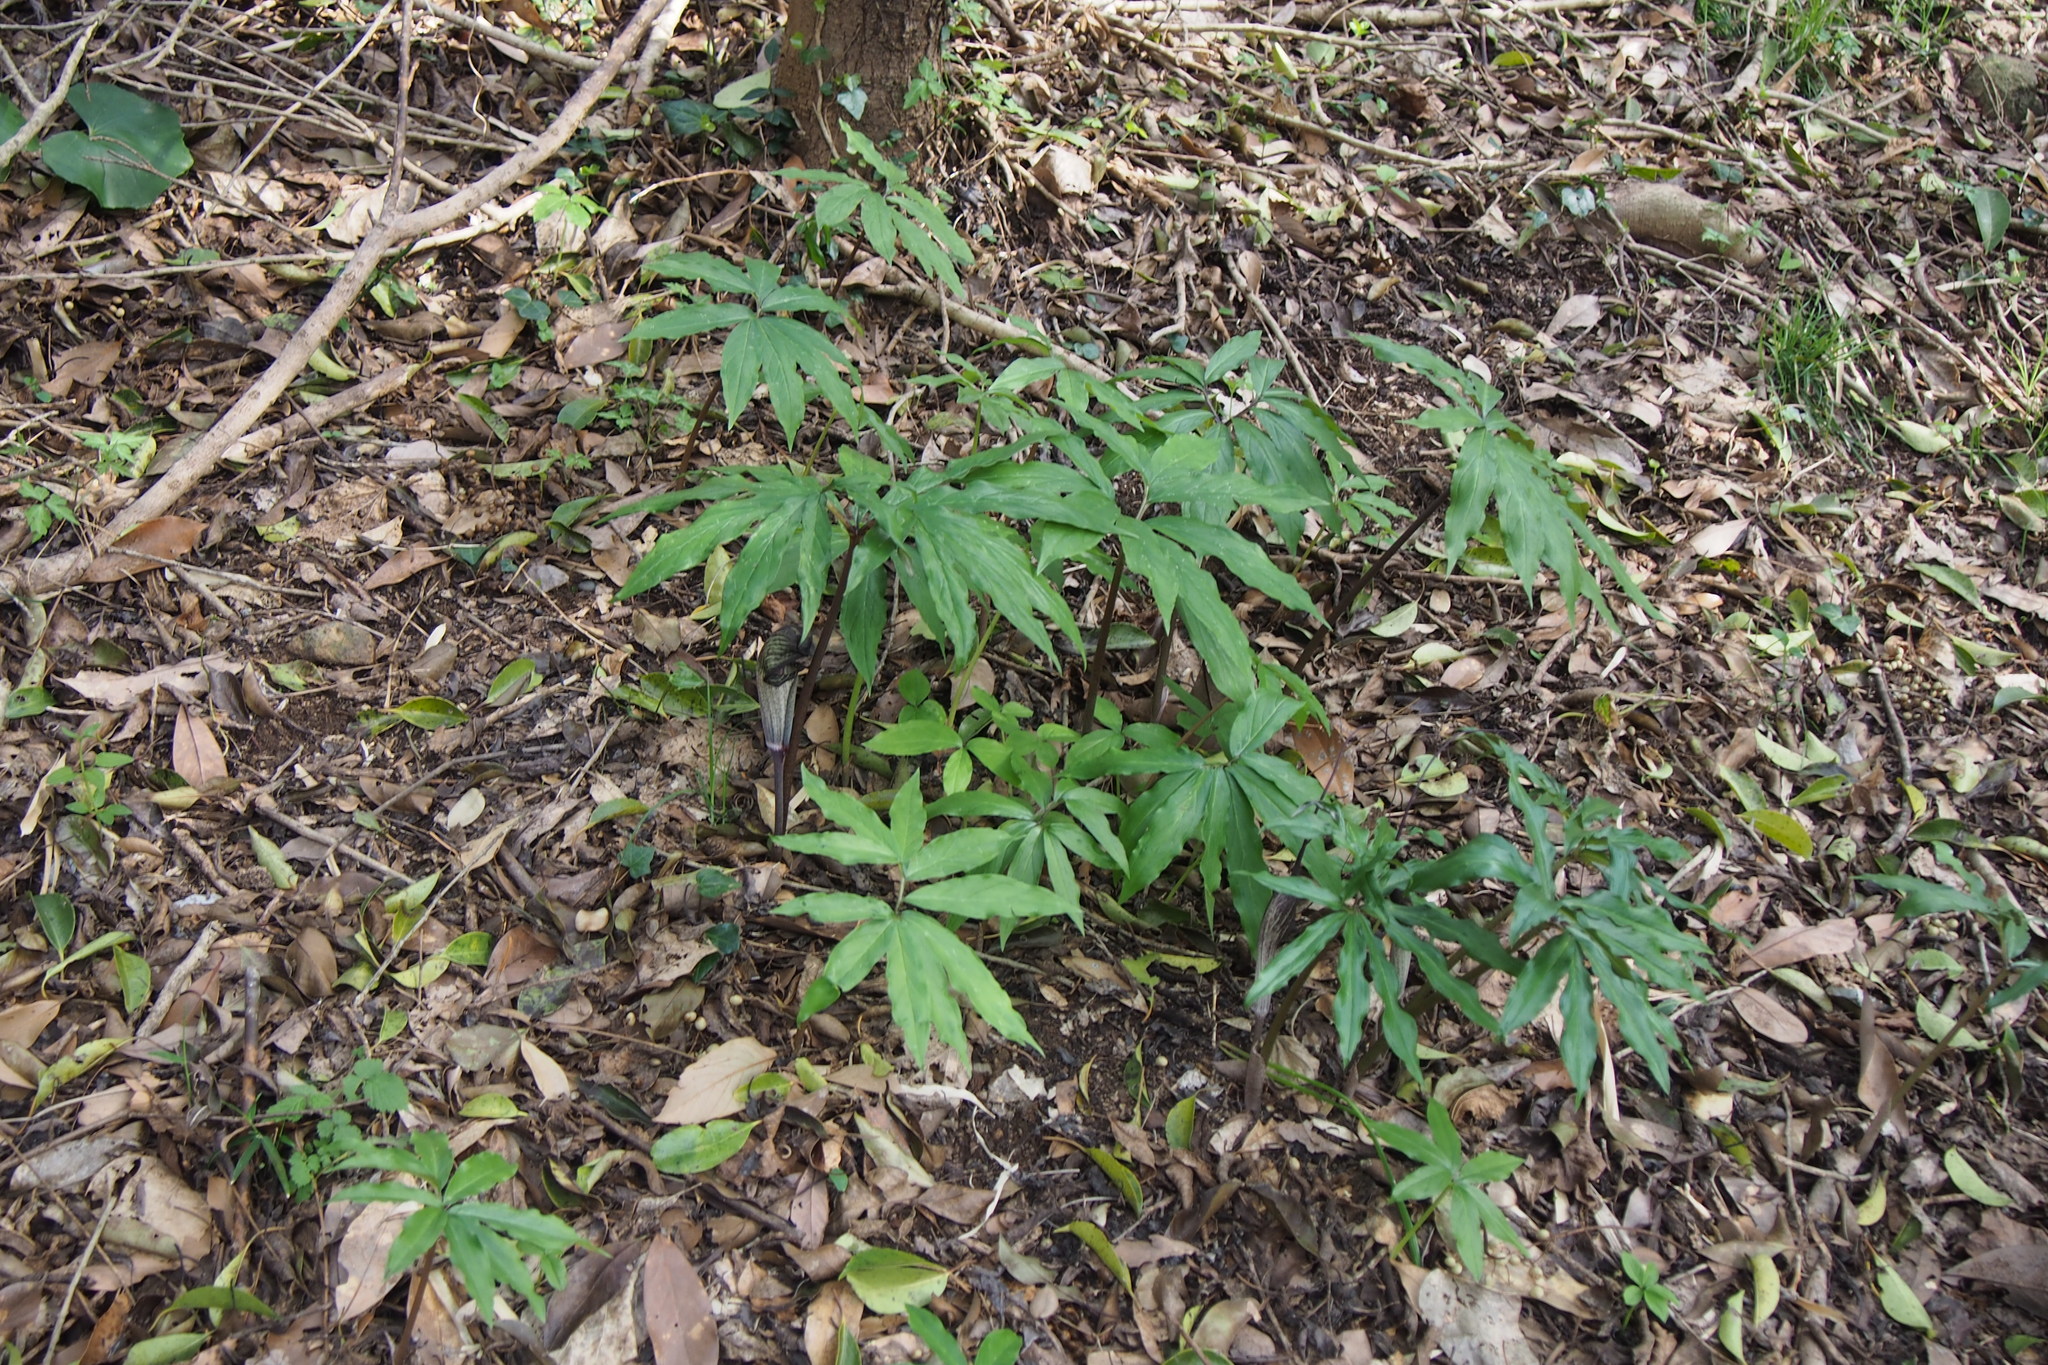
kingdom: Plantae
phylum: Tracheophyta
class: Liliopsida
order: Alismatales
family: Araceae
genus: Arisaema
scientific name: Arisaema thunbergii
